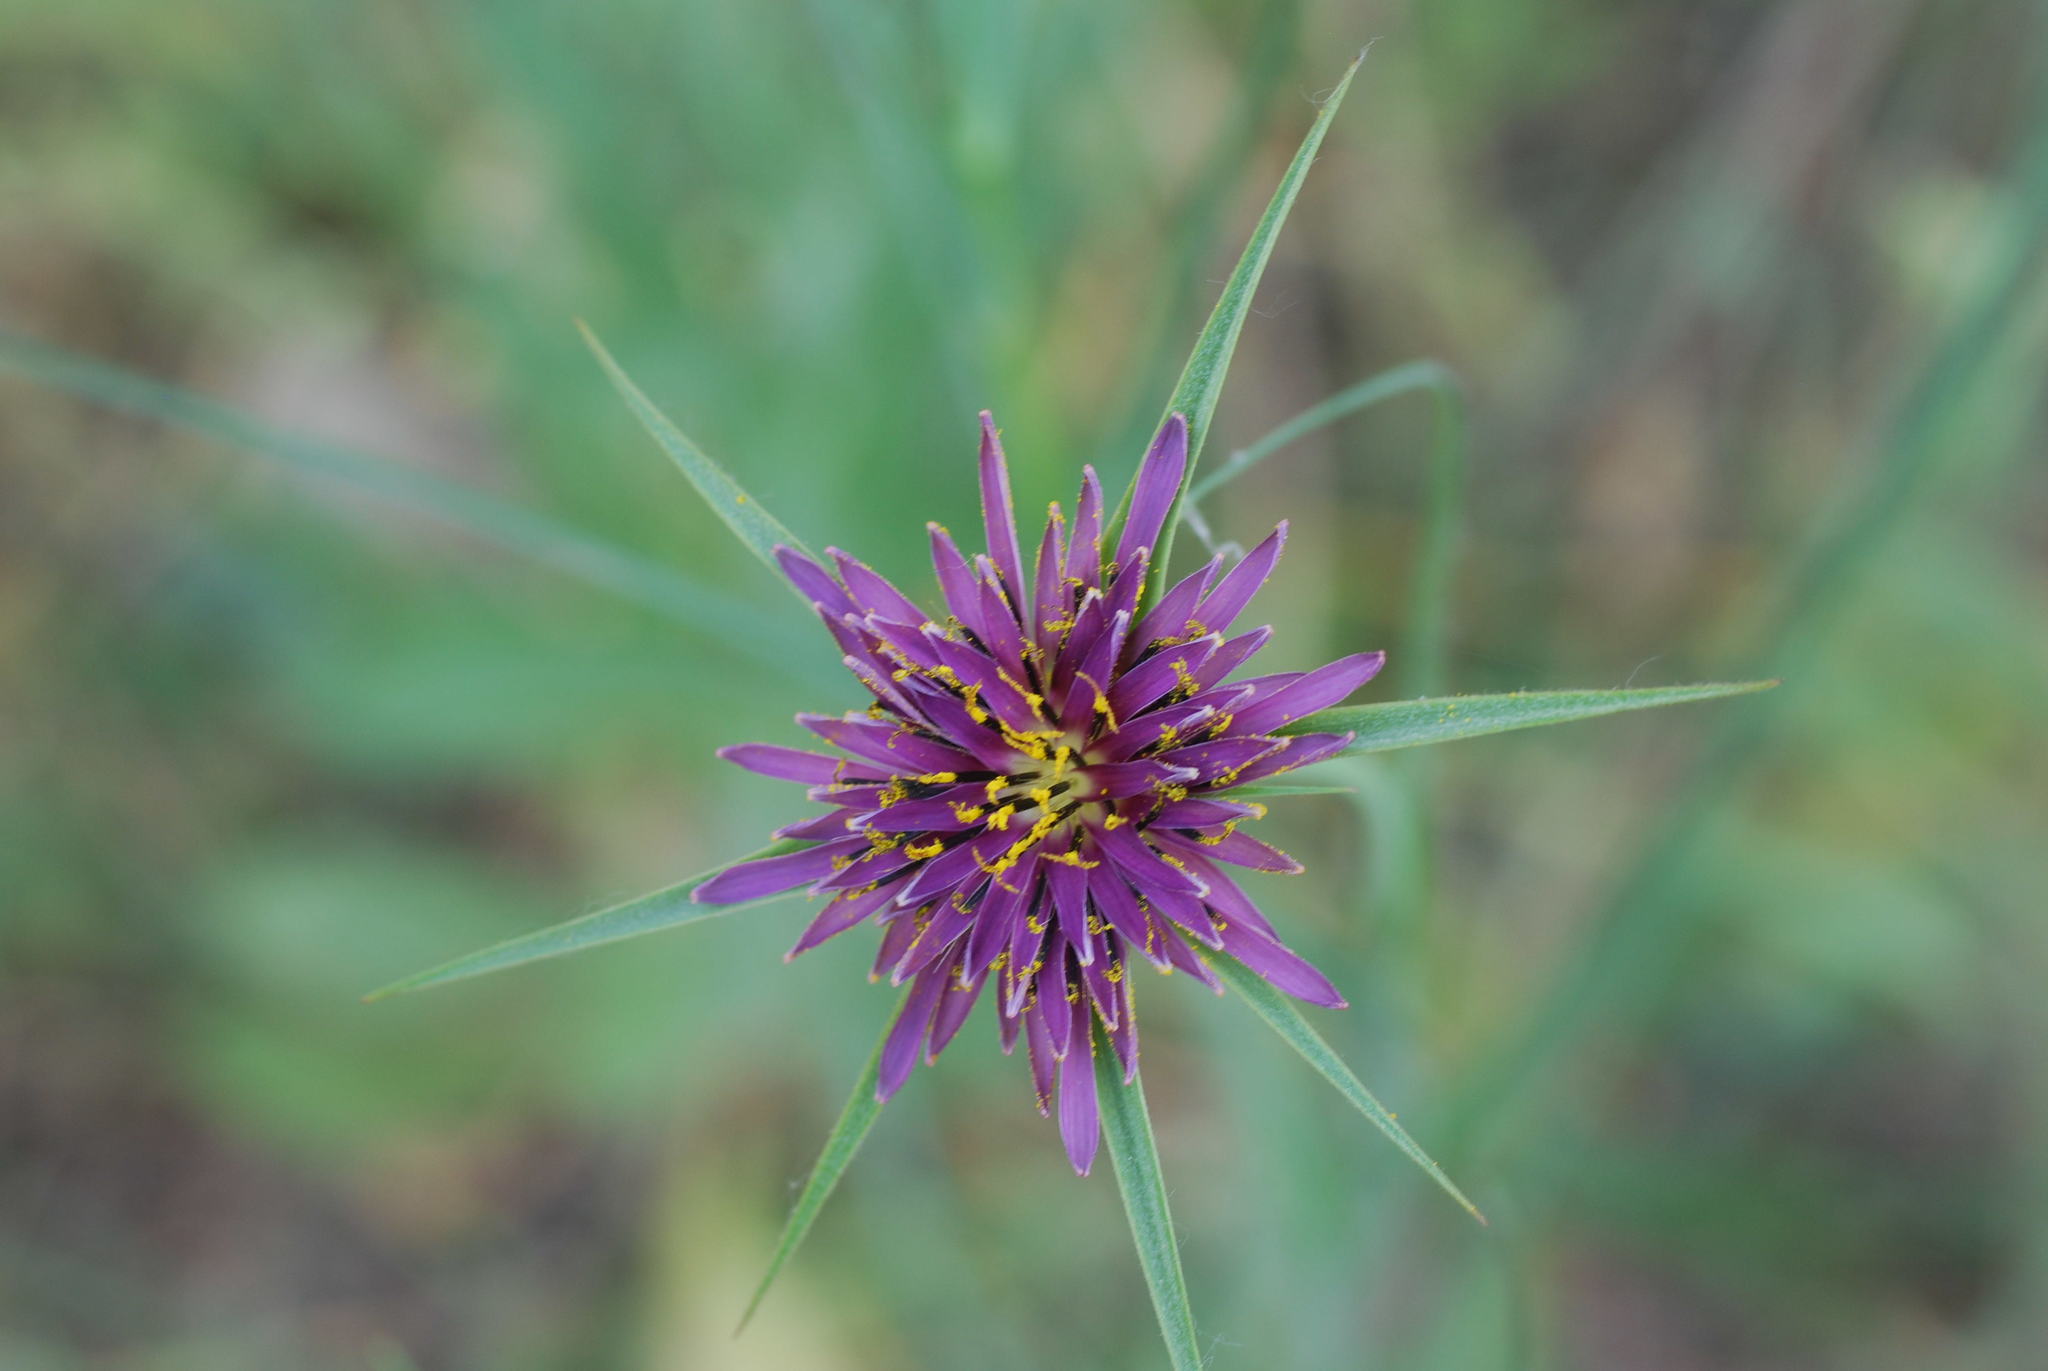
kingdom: Plantae
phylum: Tracheophyta
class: Magnoliopsida
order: Asterales
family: Asteraceae
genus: Tragopogon
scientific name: Tragopogon angustifolius
